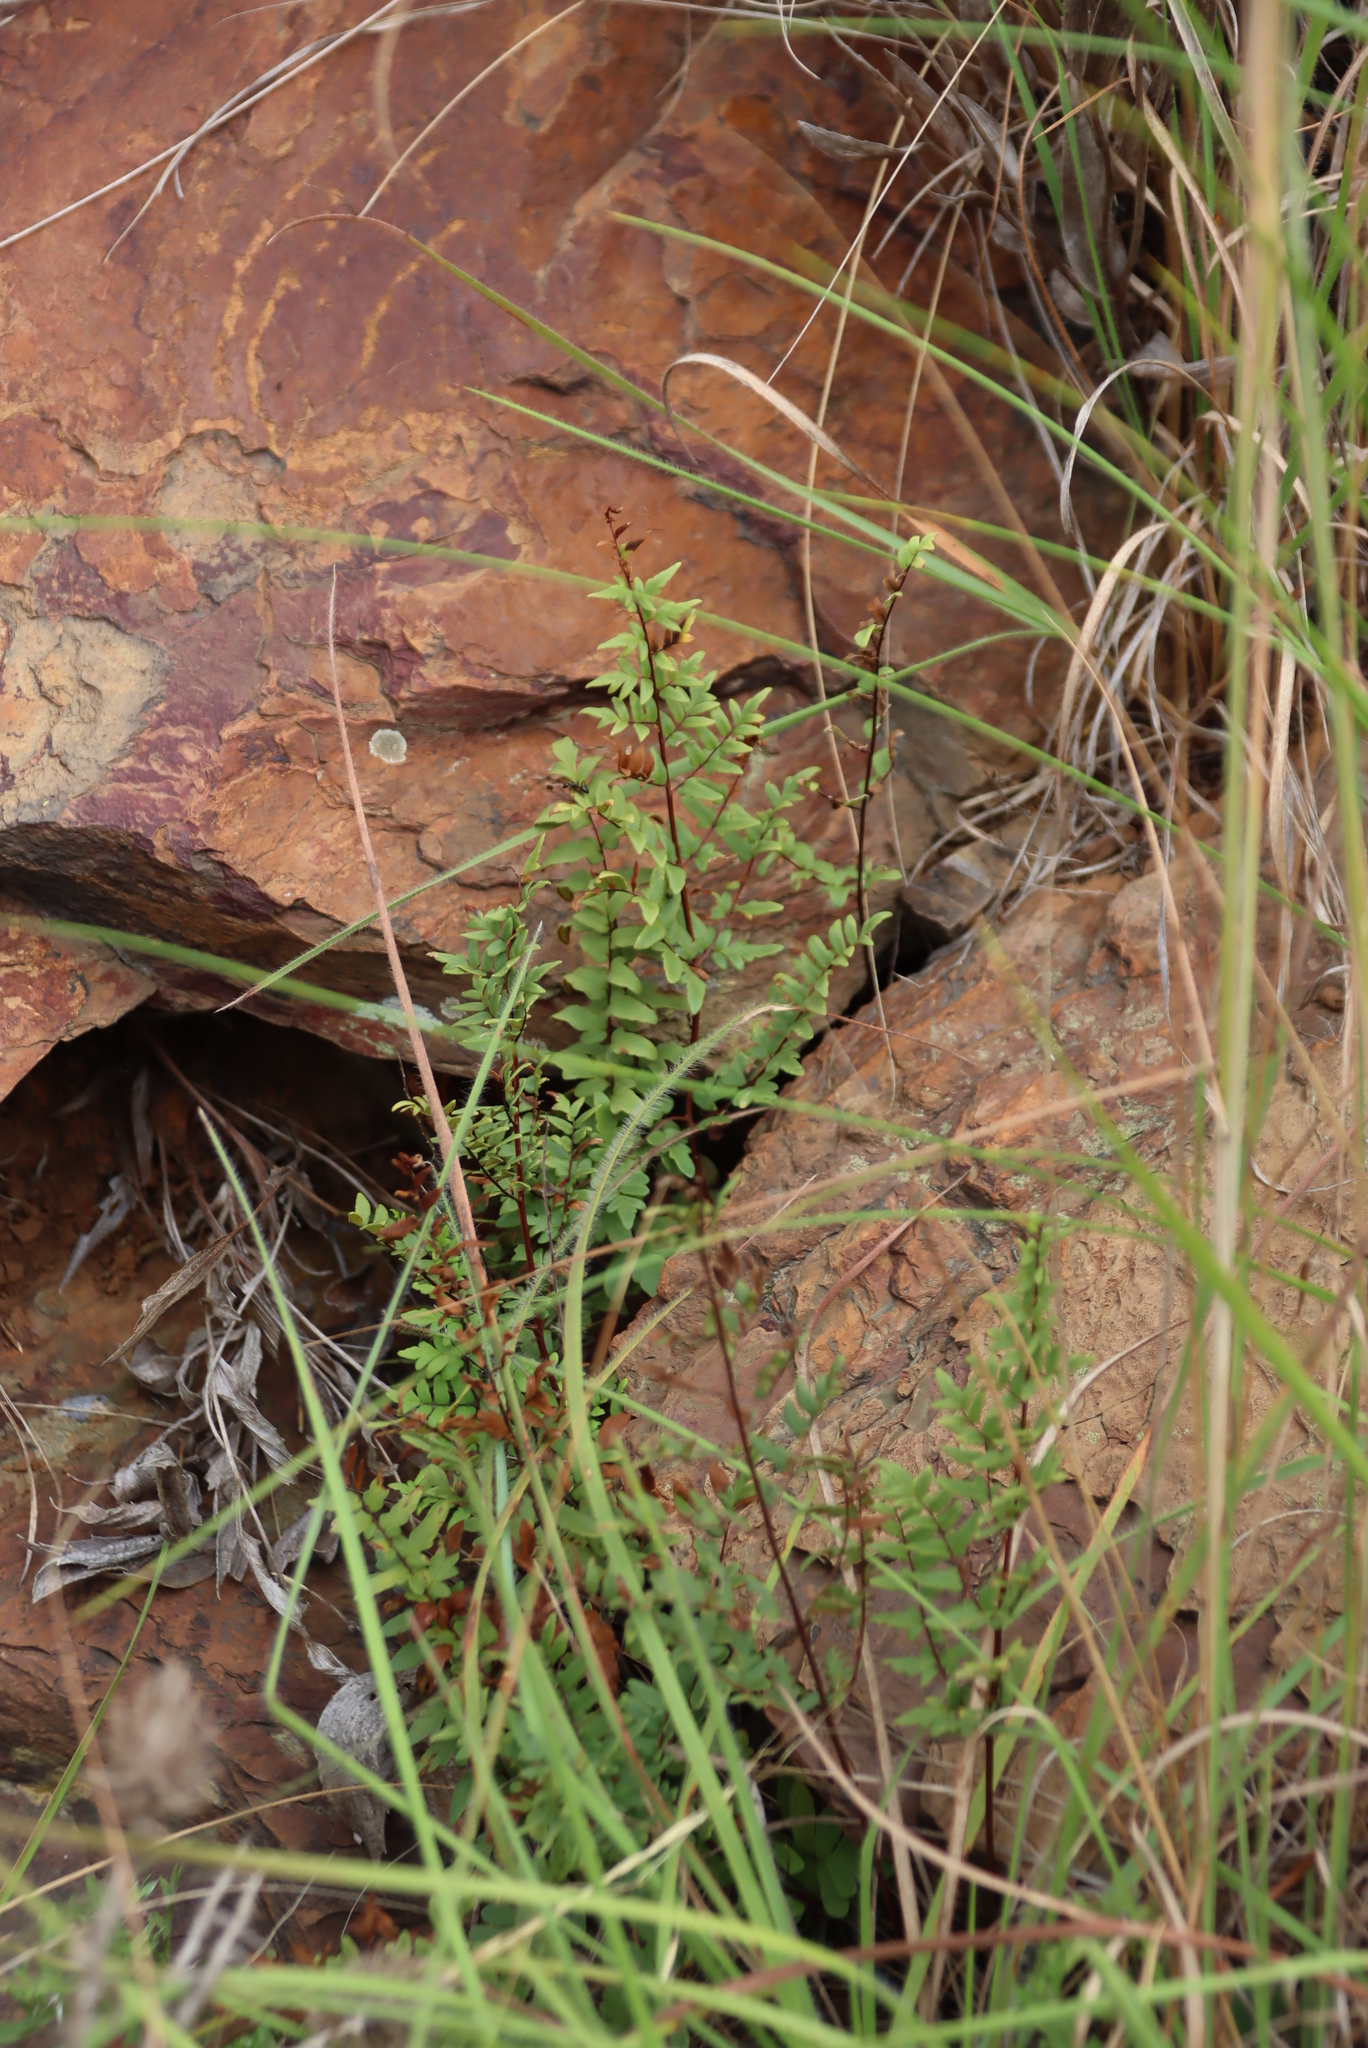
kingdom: Plantae
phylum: Tracheophyta
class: Polypodiopsida
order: Polypodiales
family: Pteridaceae
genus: Cheilanthes
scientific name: Cheilanthes viridis
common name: Green cliffbrake
